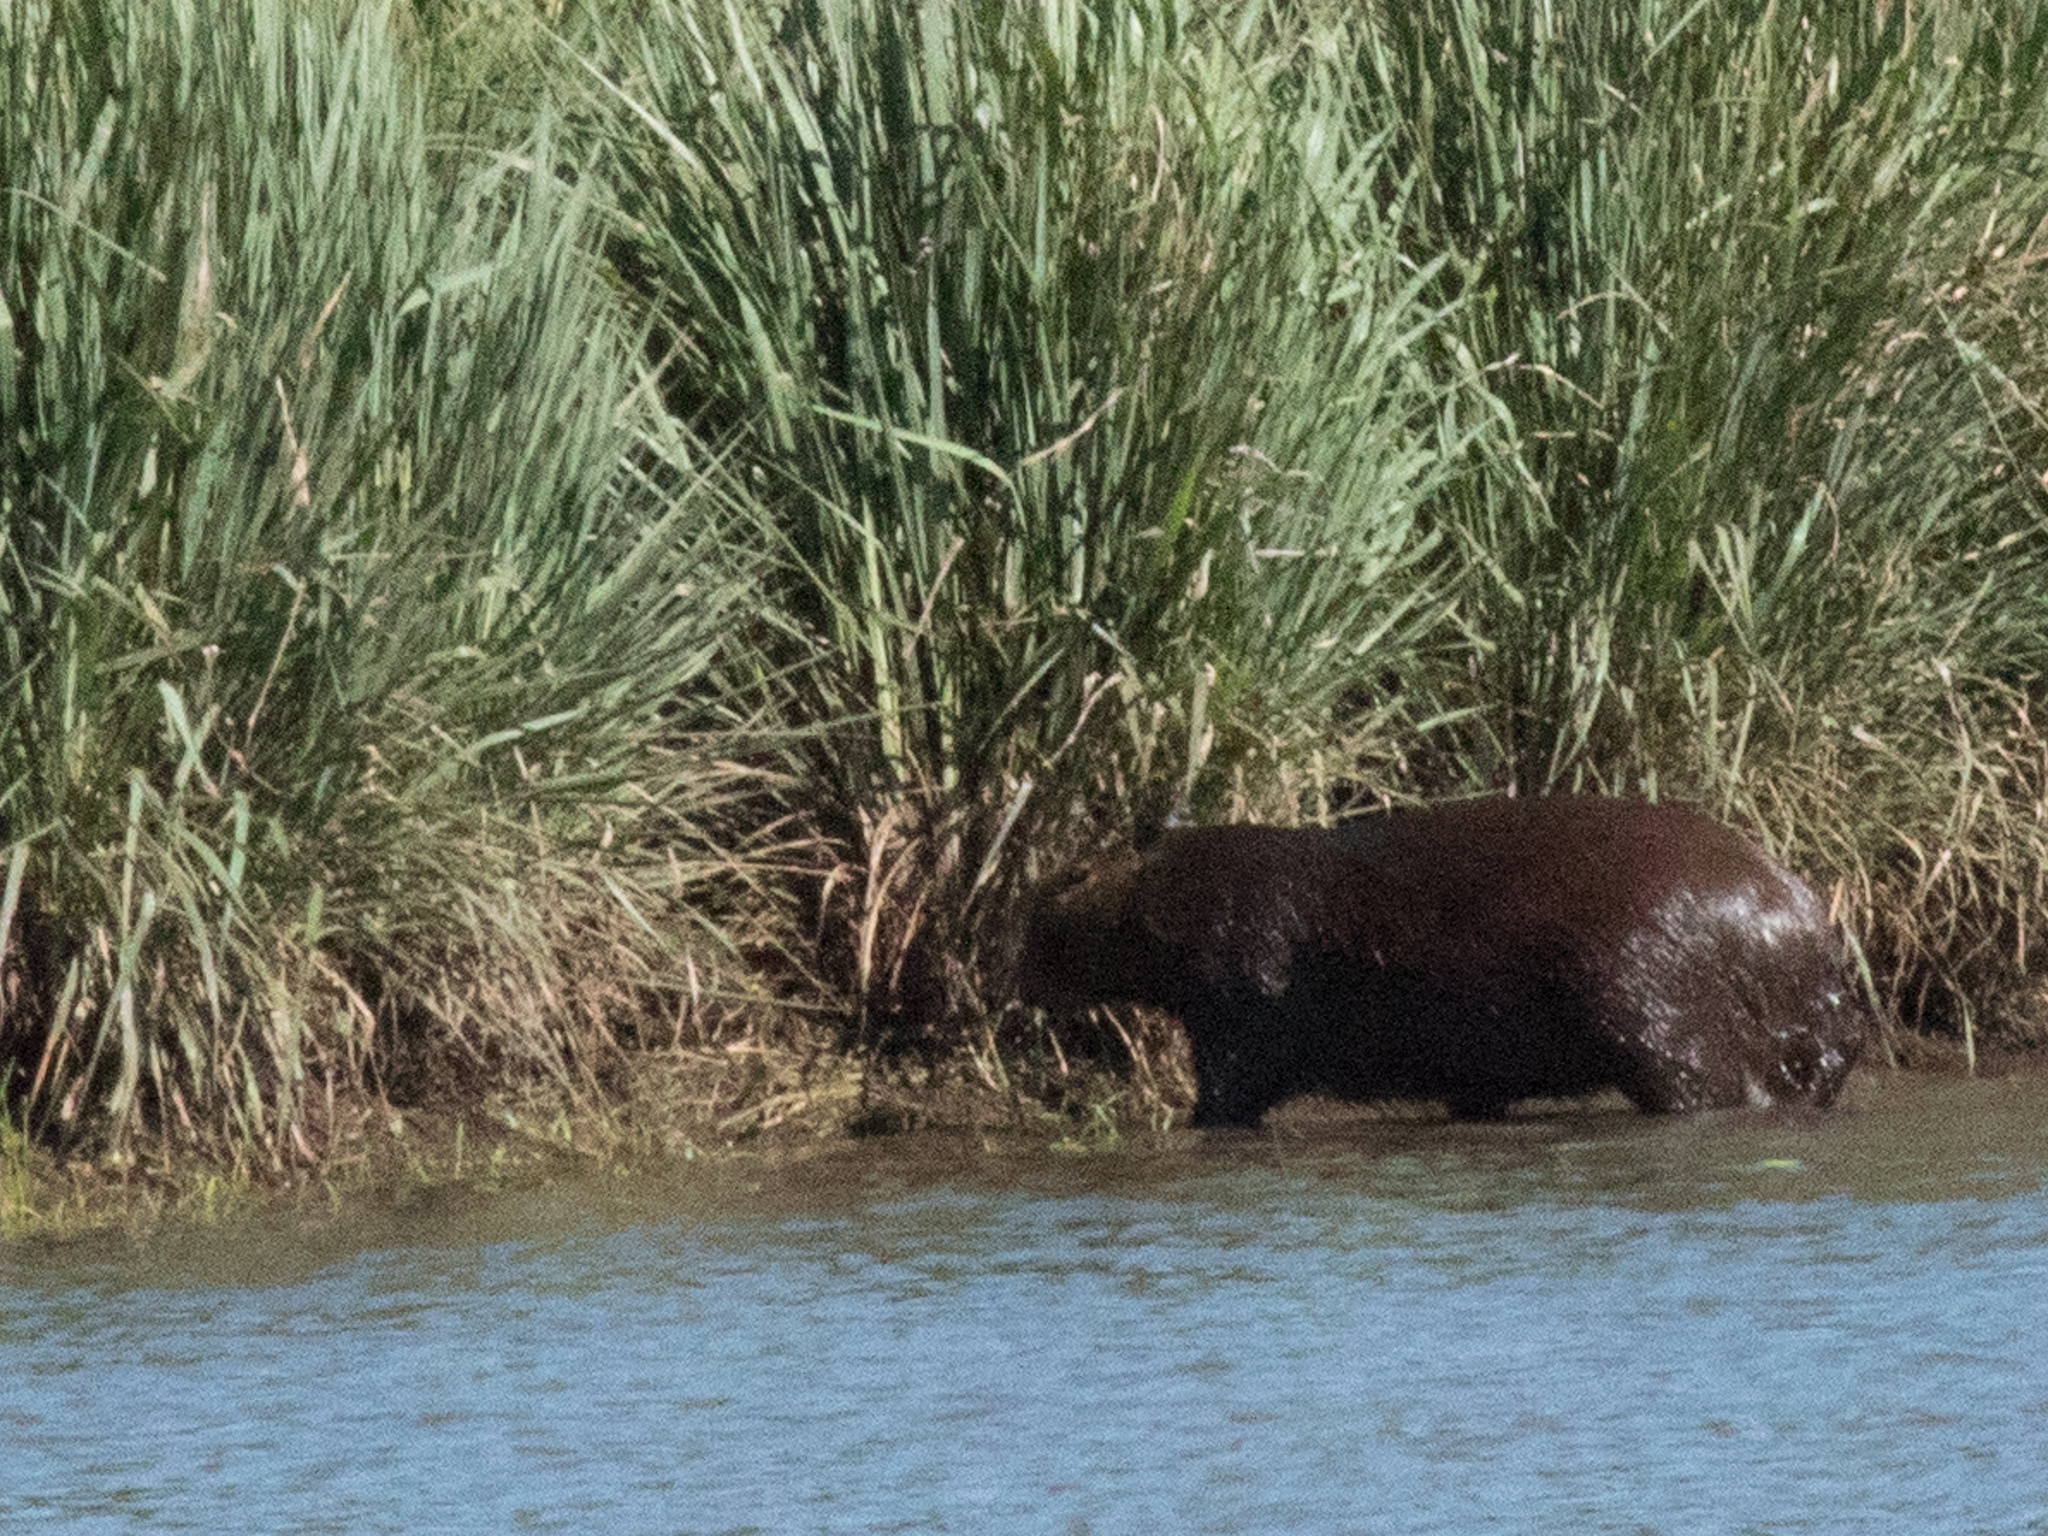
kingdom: Animalia
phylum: Chordata
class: Mammalia
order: Rodentia
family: Caviidae
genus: Hydrochoerus
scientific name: Hydrochoerus hydrochaeris
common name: Capybara
